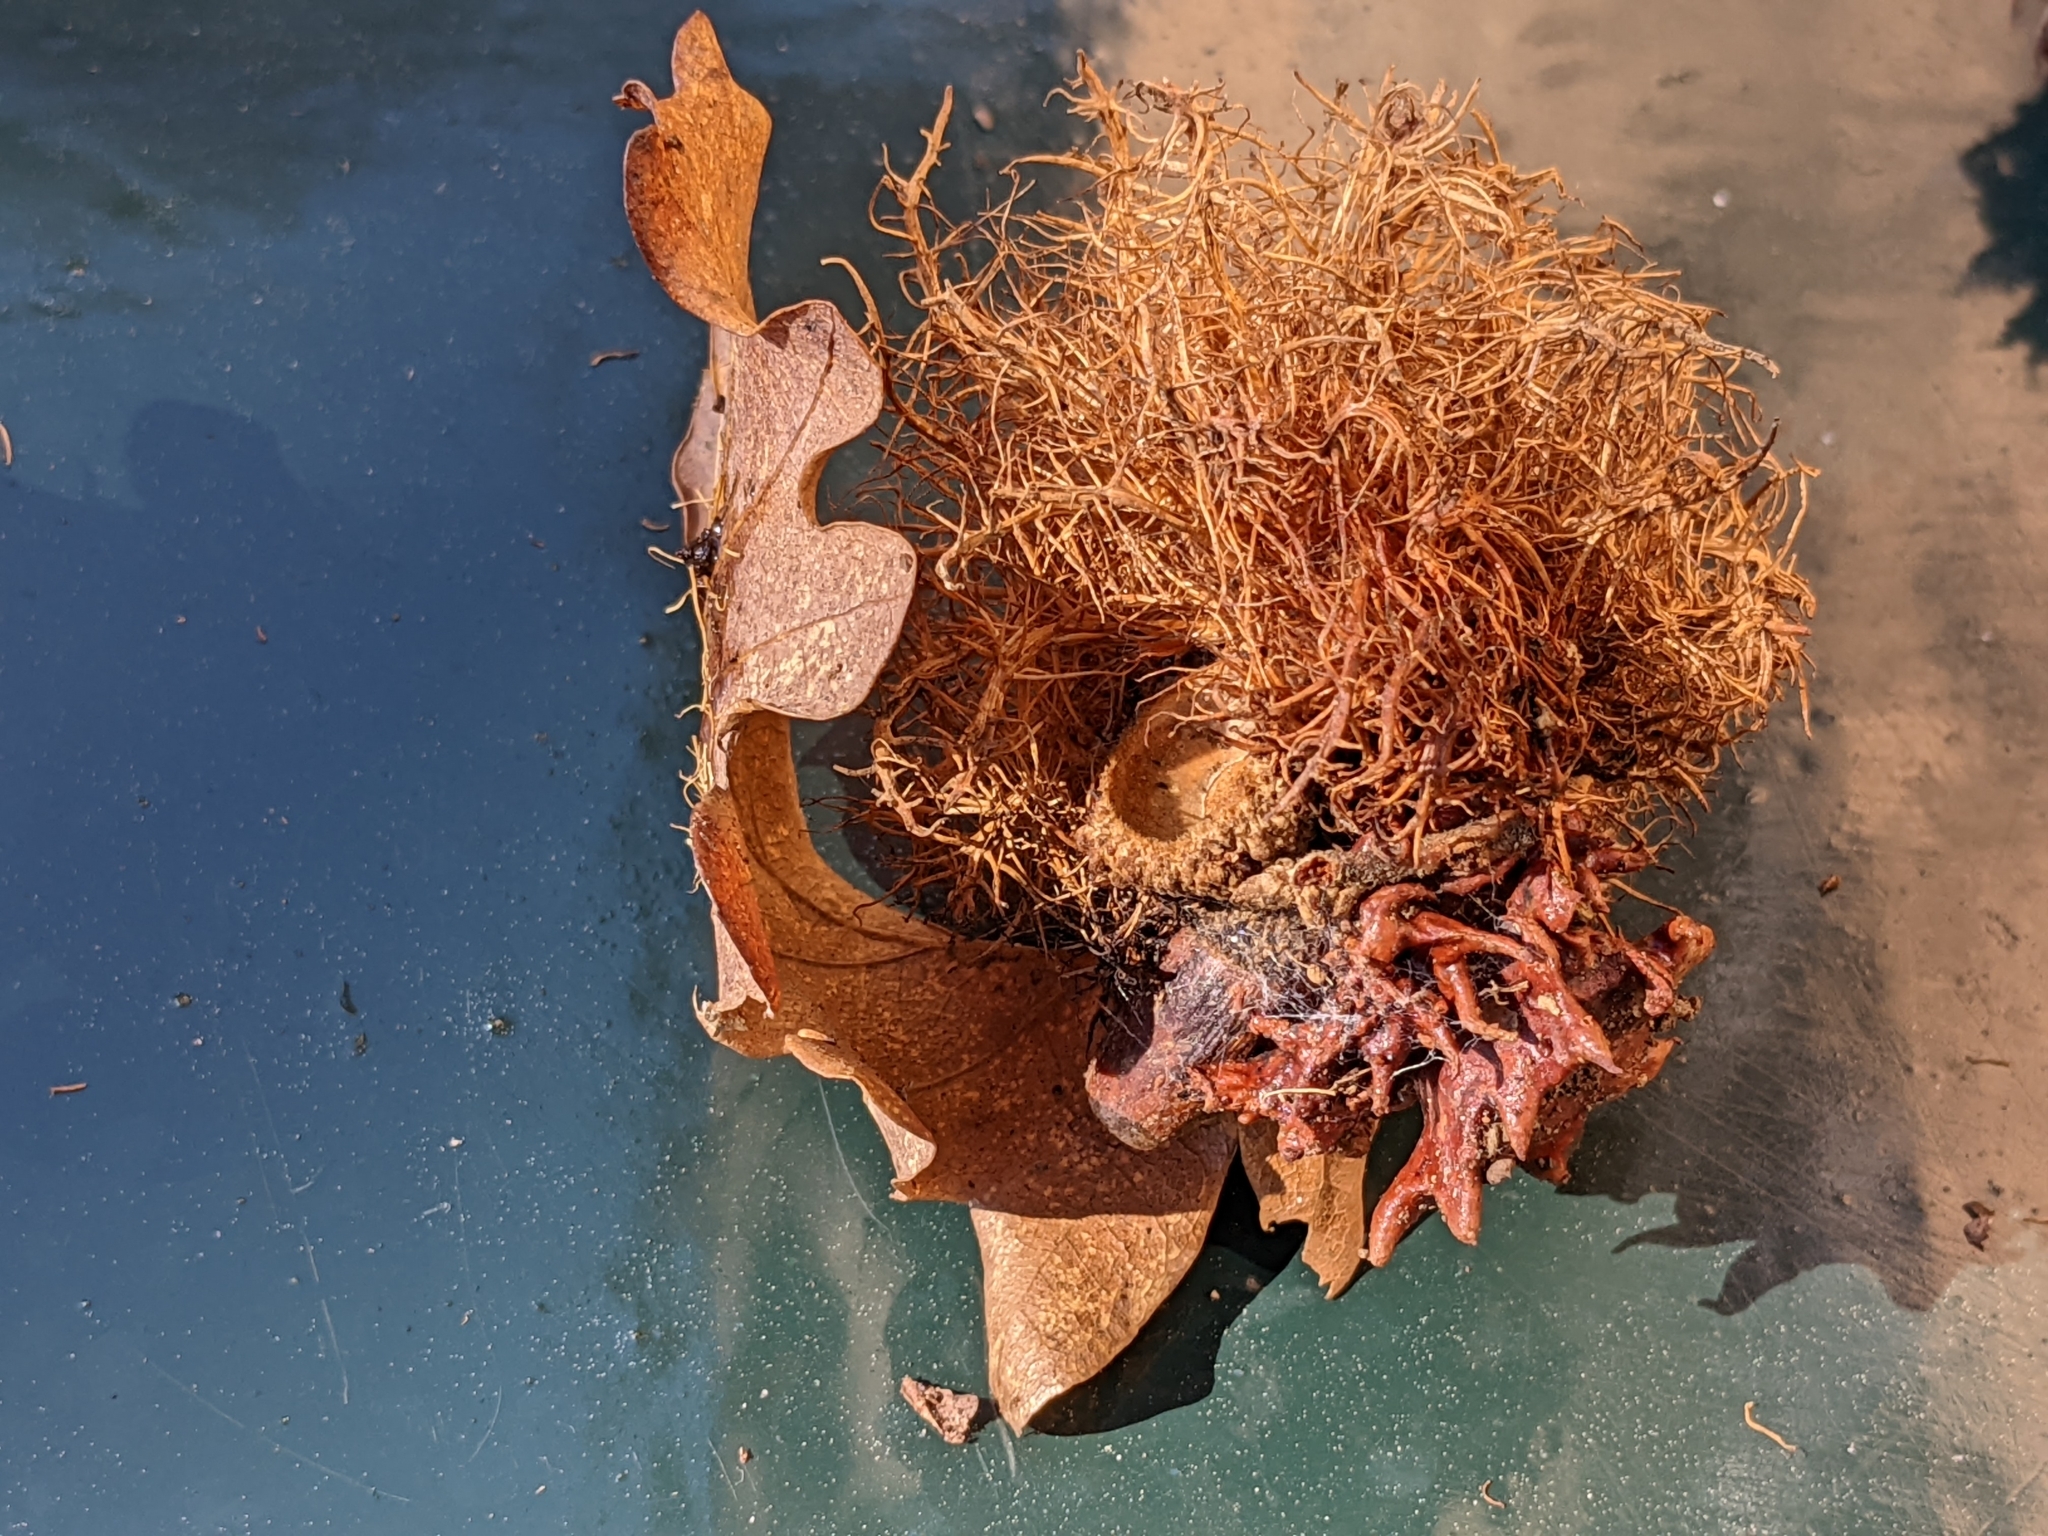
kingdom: Animalia
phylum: Arthropoda
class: Insecta
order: Hymenoptera
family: Cynipidae
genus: Andricus
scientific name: Andricus caputmedusae
